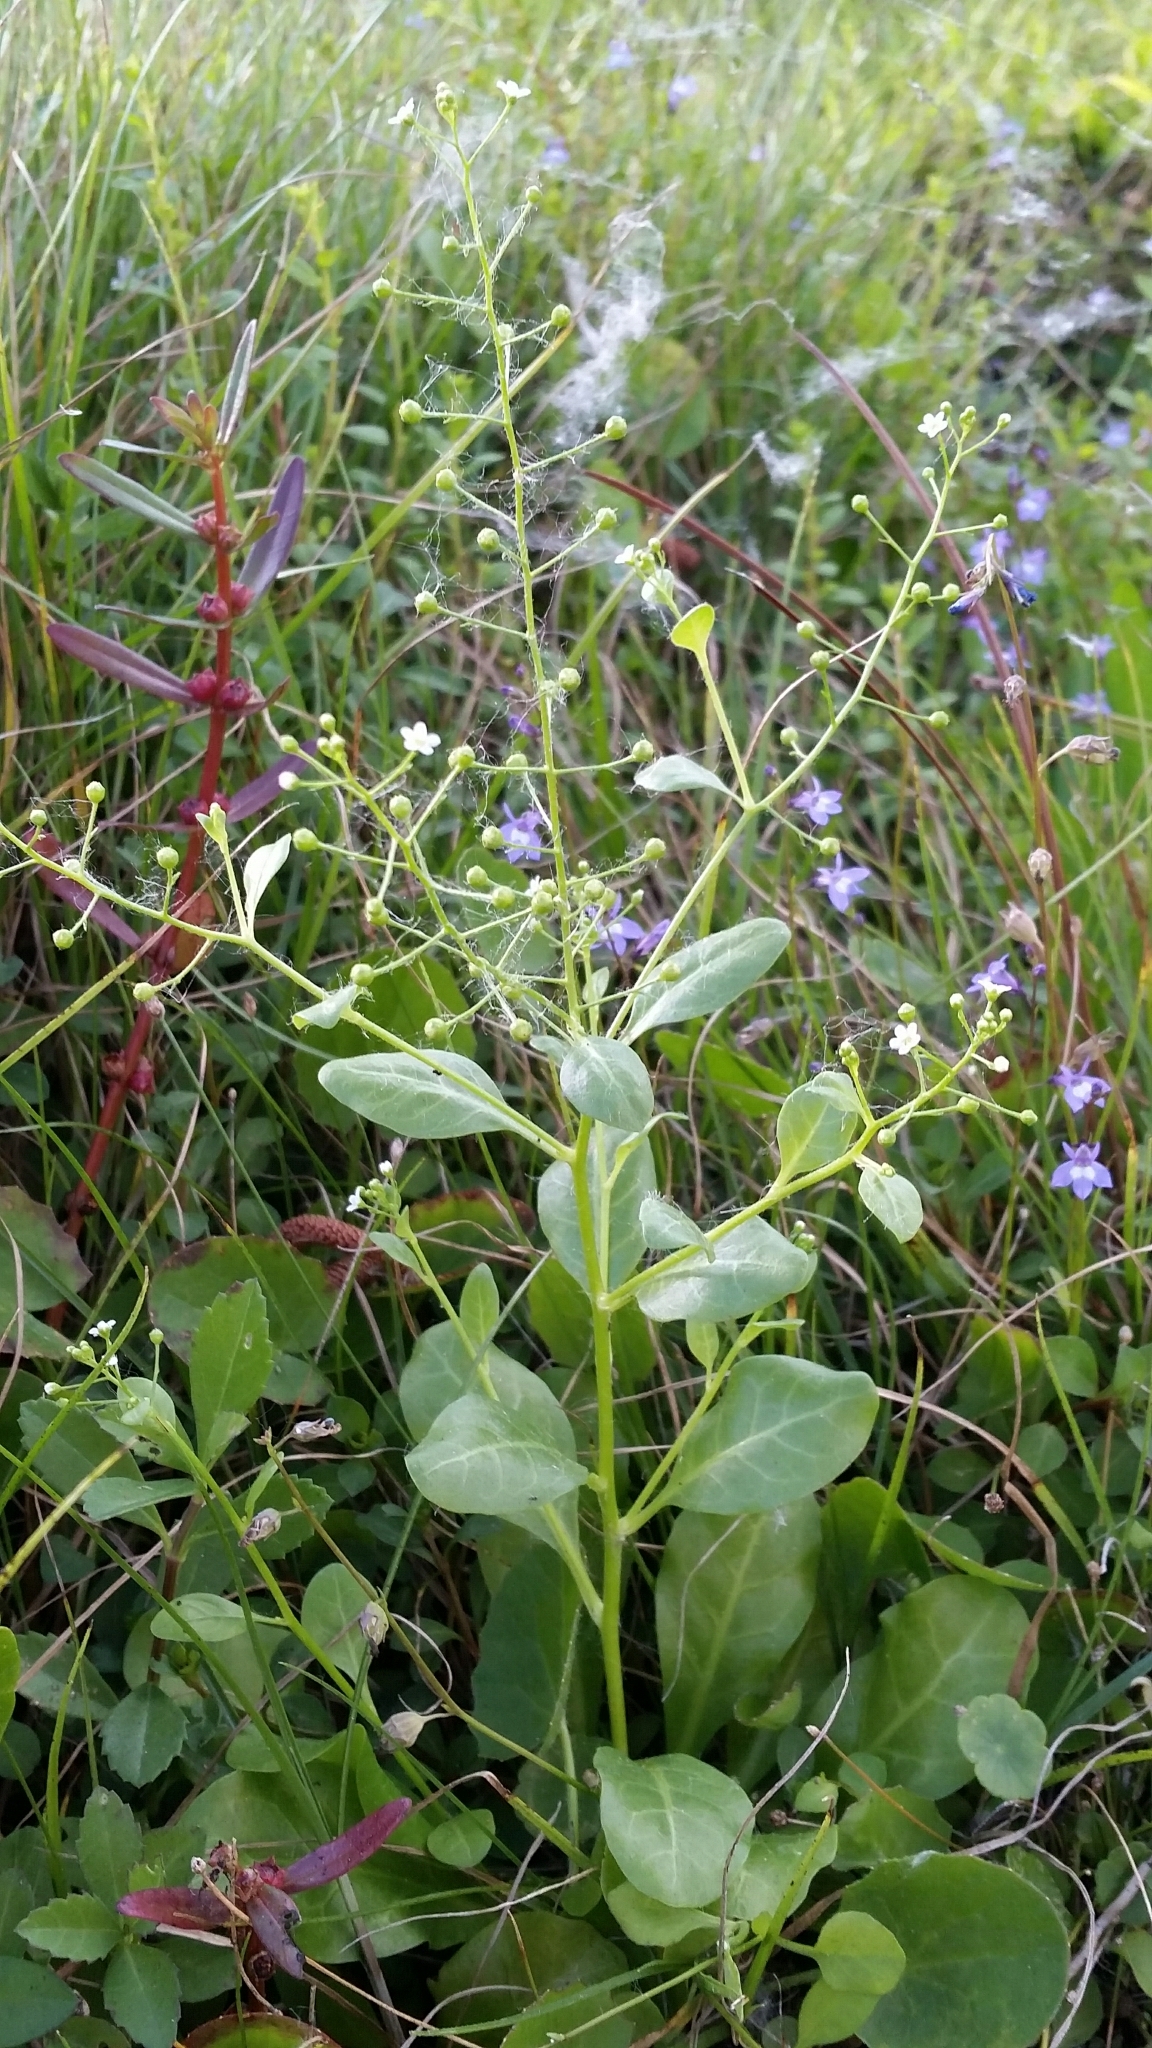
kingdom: Plantae
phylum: Tracheophyta
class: Magnoliopsida
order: Ericales
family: Primulaceae
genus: Samolus
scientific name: Samolus parviflorus
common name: False water pimpernel
